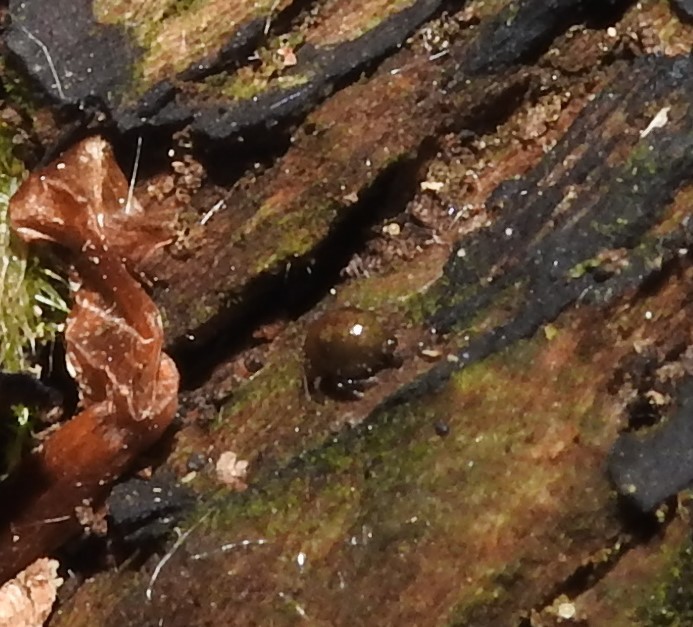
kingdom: Animalia
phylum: Arthropoda
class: Collembola
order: Symphypleona
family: Sminthuridae
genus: Allacma
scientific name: Allacma fusca
